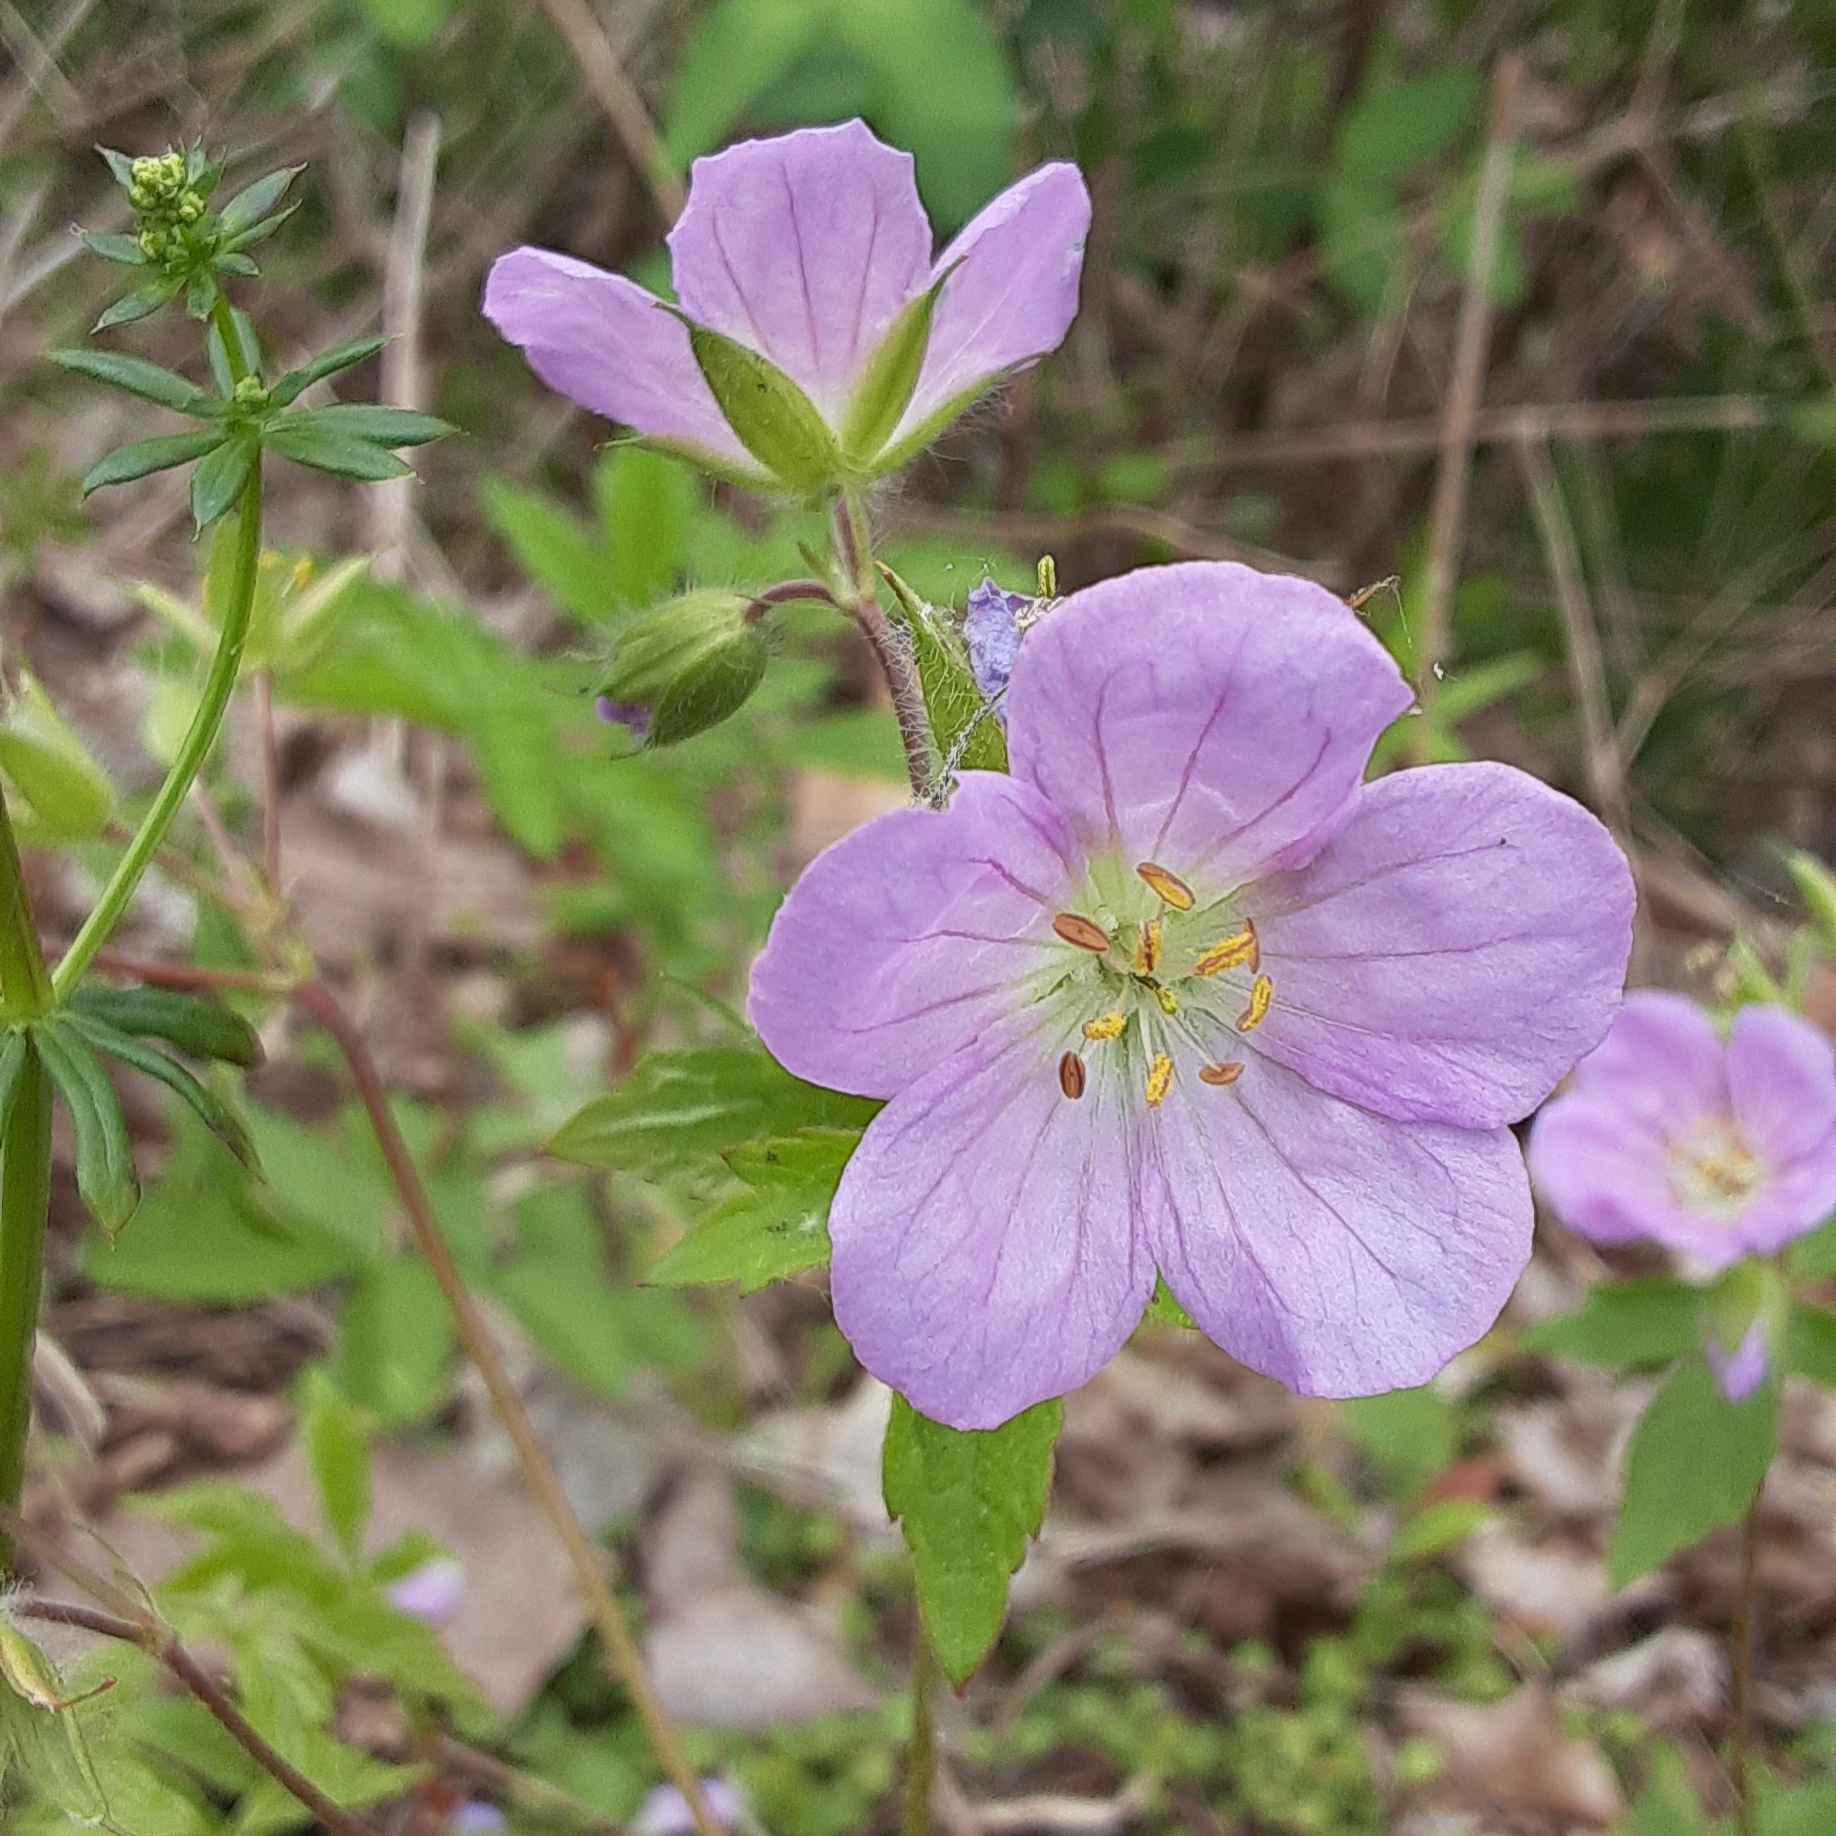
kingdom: Plantae
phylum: Tracheophyta
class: Magnoliopsida
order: Geraniales
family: Geraniaceae
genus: Geranium
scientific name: Geranium maculatum
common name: Spotted geranium
